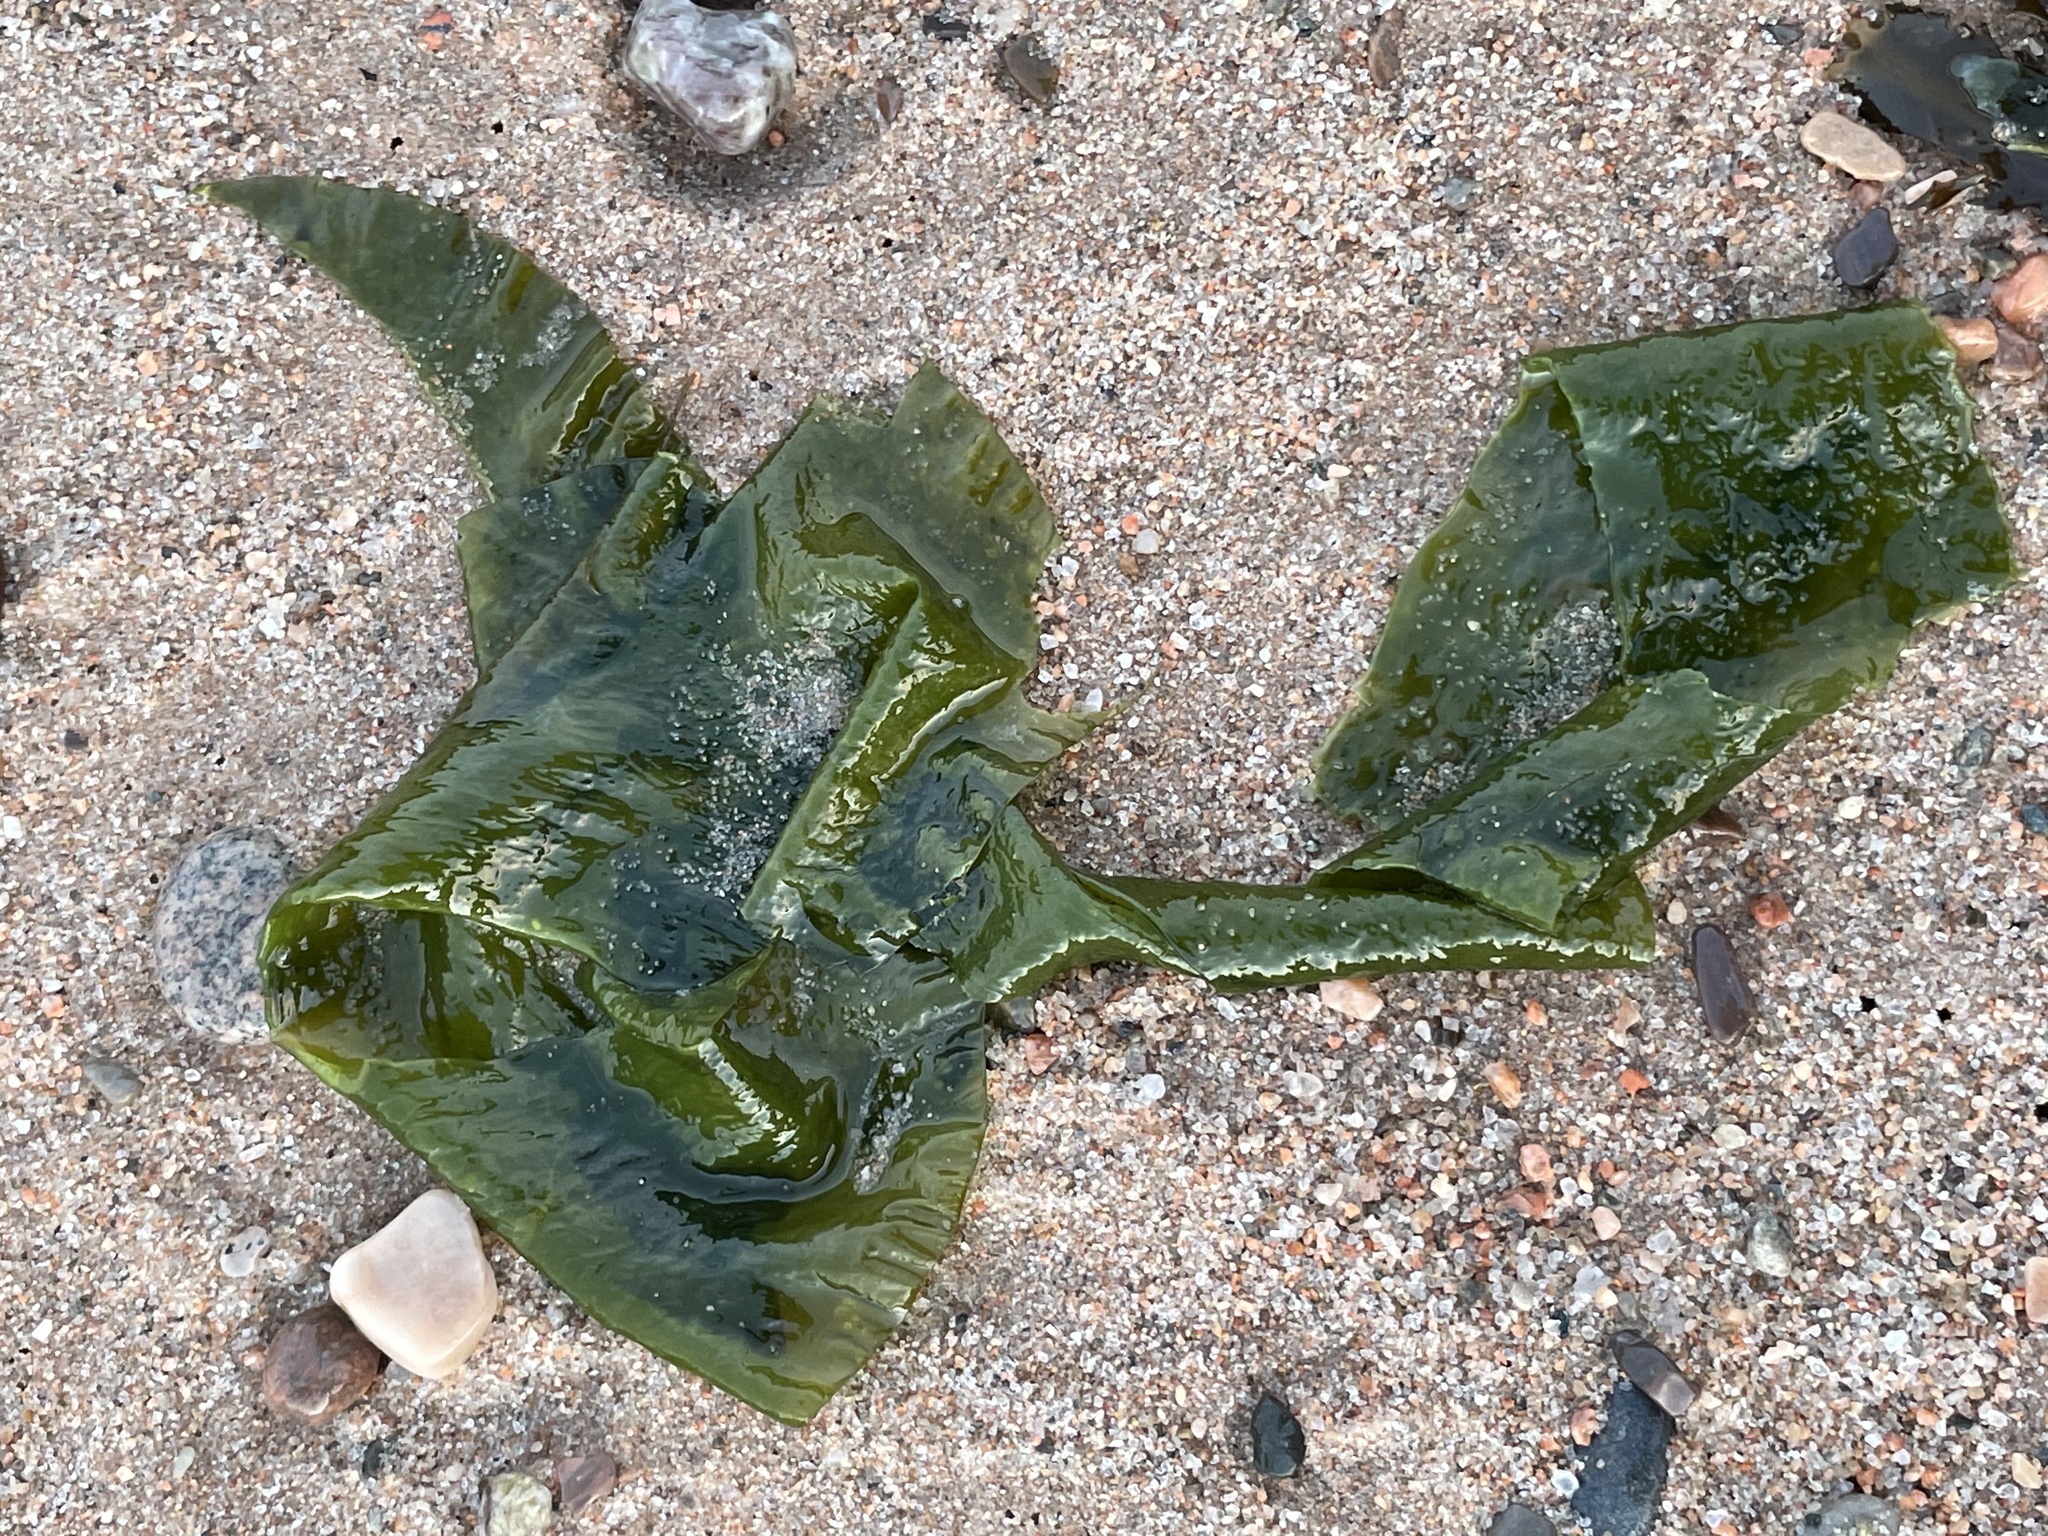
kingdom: Plantae
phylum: Chlorophyta
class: Ulvophyceae
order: Ulvales
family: Ulvaceae
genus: Ulva
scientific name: Ulva lactuca
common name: Sea lettuce
